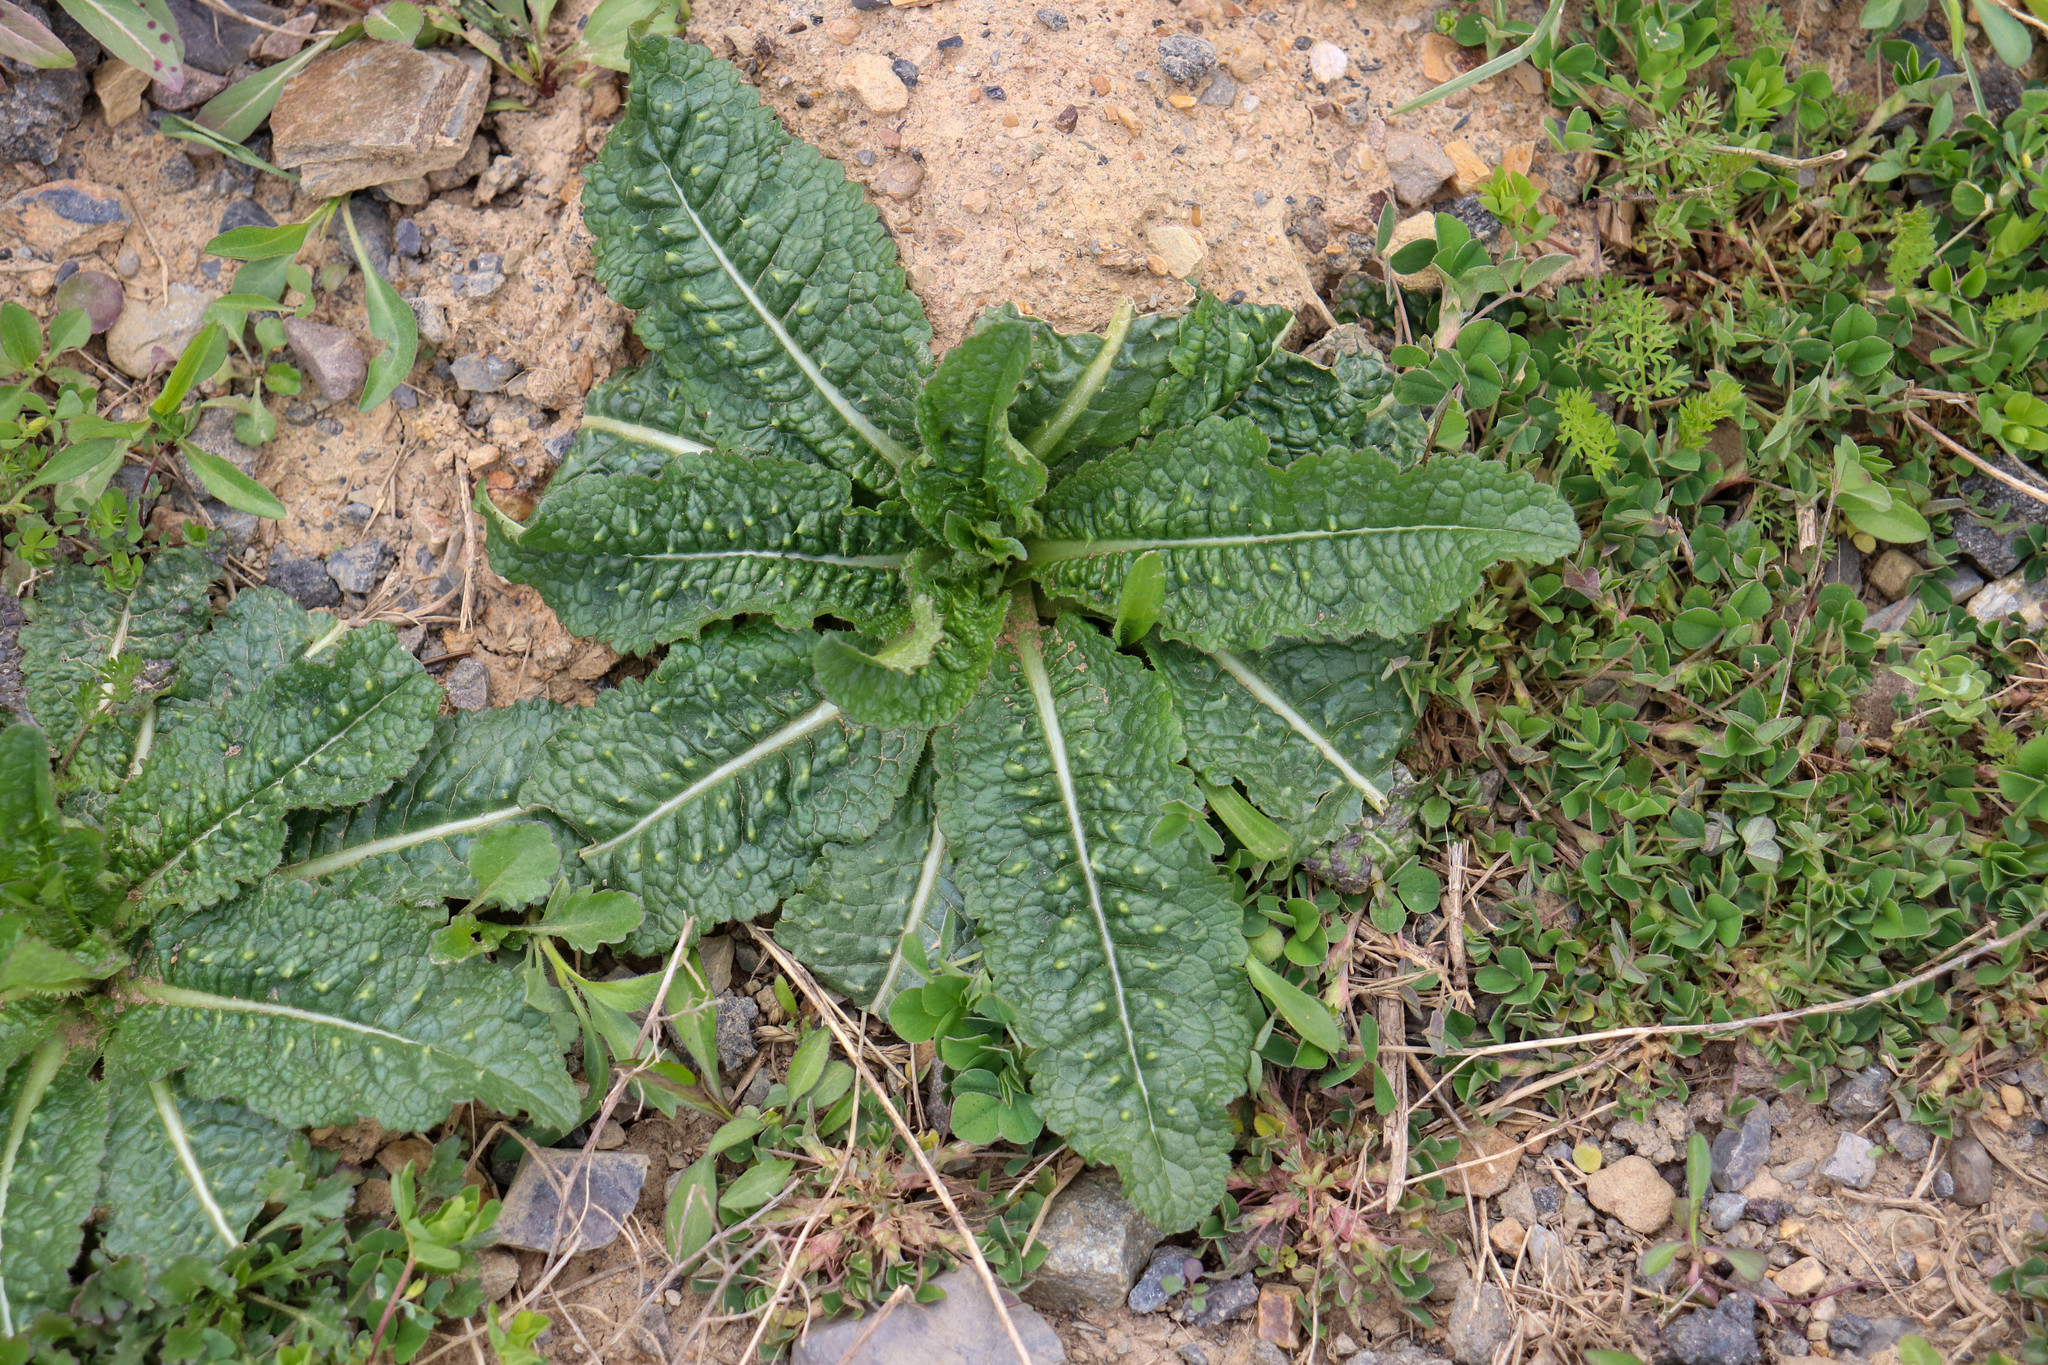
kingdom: Plantae
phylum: Tracheophyta
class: Magnoliopsida
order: Dipsacales
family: Caprifoliaceae
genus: Dipsacus
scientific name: Dipsacus fullonum
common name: Teasel
